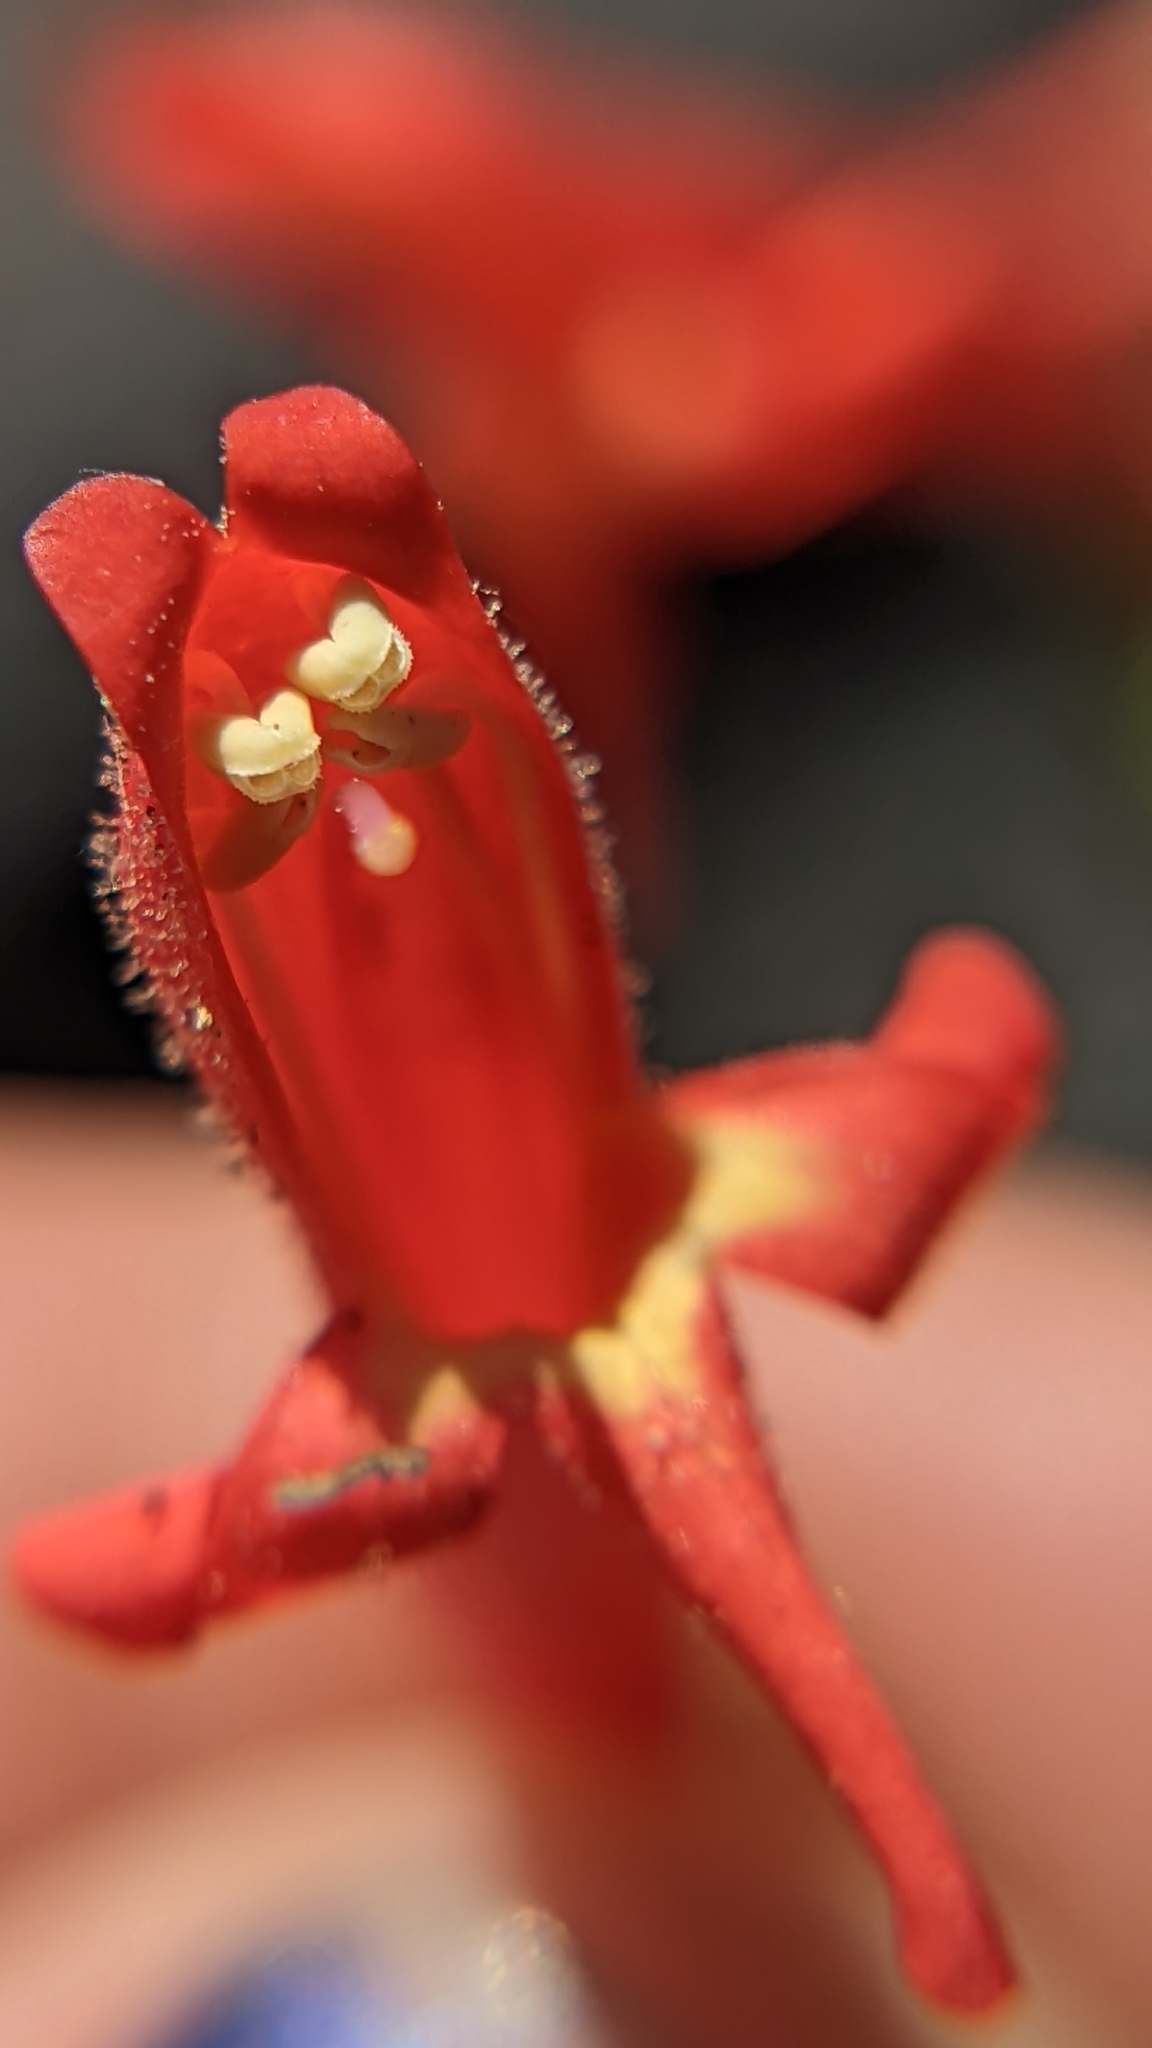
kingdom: Plantae
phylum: Tracheophyta
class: Magnoliopsida
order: Lamiales
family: Plantaginaceae
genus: Penstemon
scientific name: Penstemon rostriflorus
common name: Bridges's penstemon
